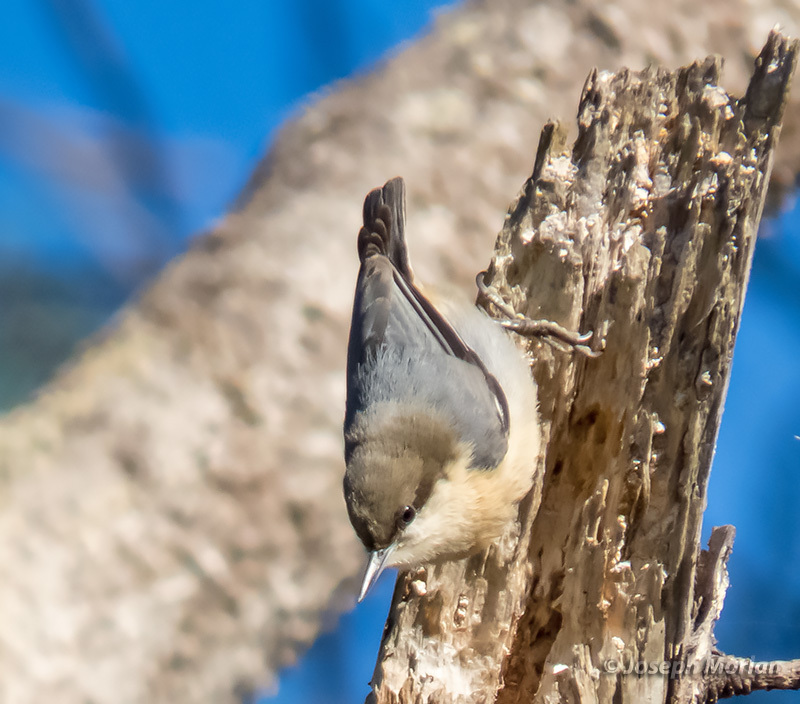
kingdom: Animalia
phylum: Chordata
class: Aves
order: Passeriformes
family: Sittidae
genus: Sitta
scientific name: Sitta pygmaea
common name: Pygmy nuthatch
